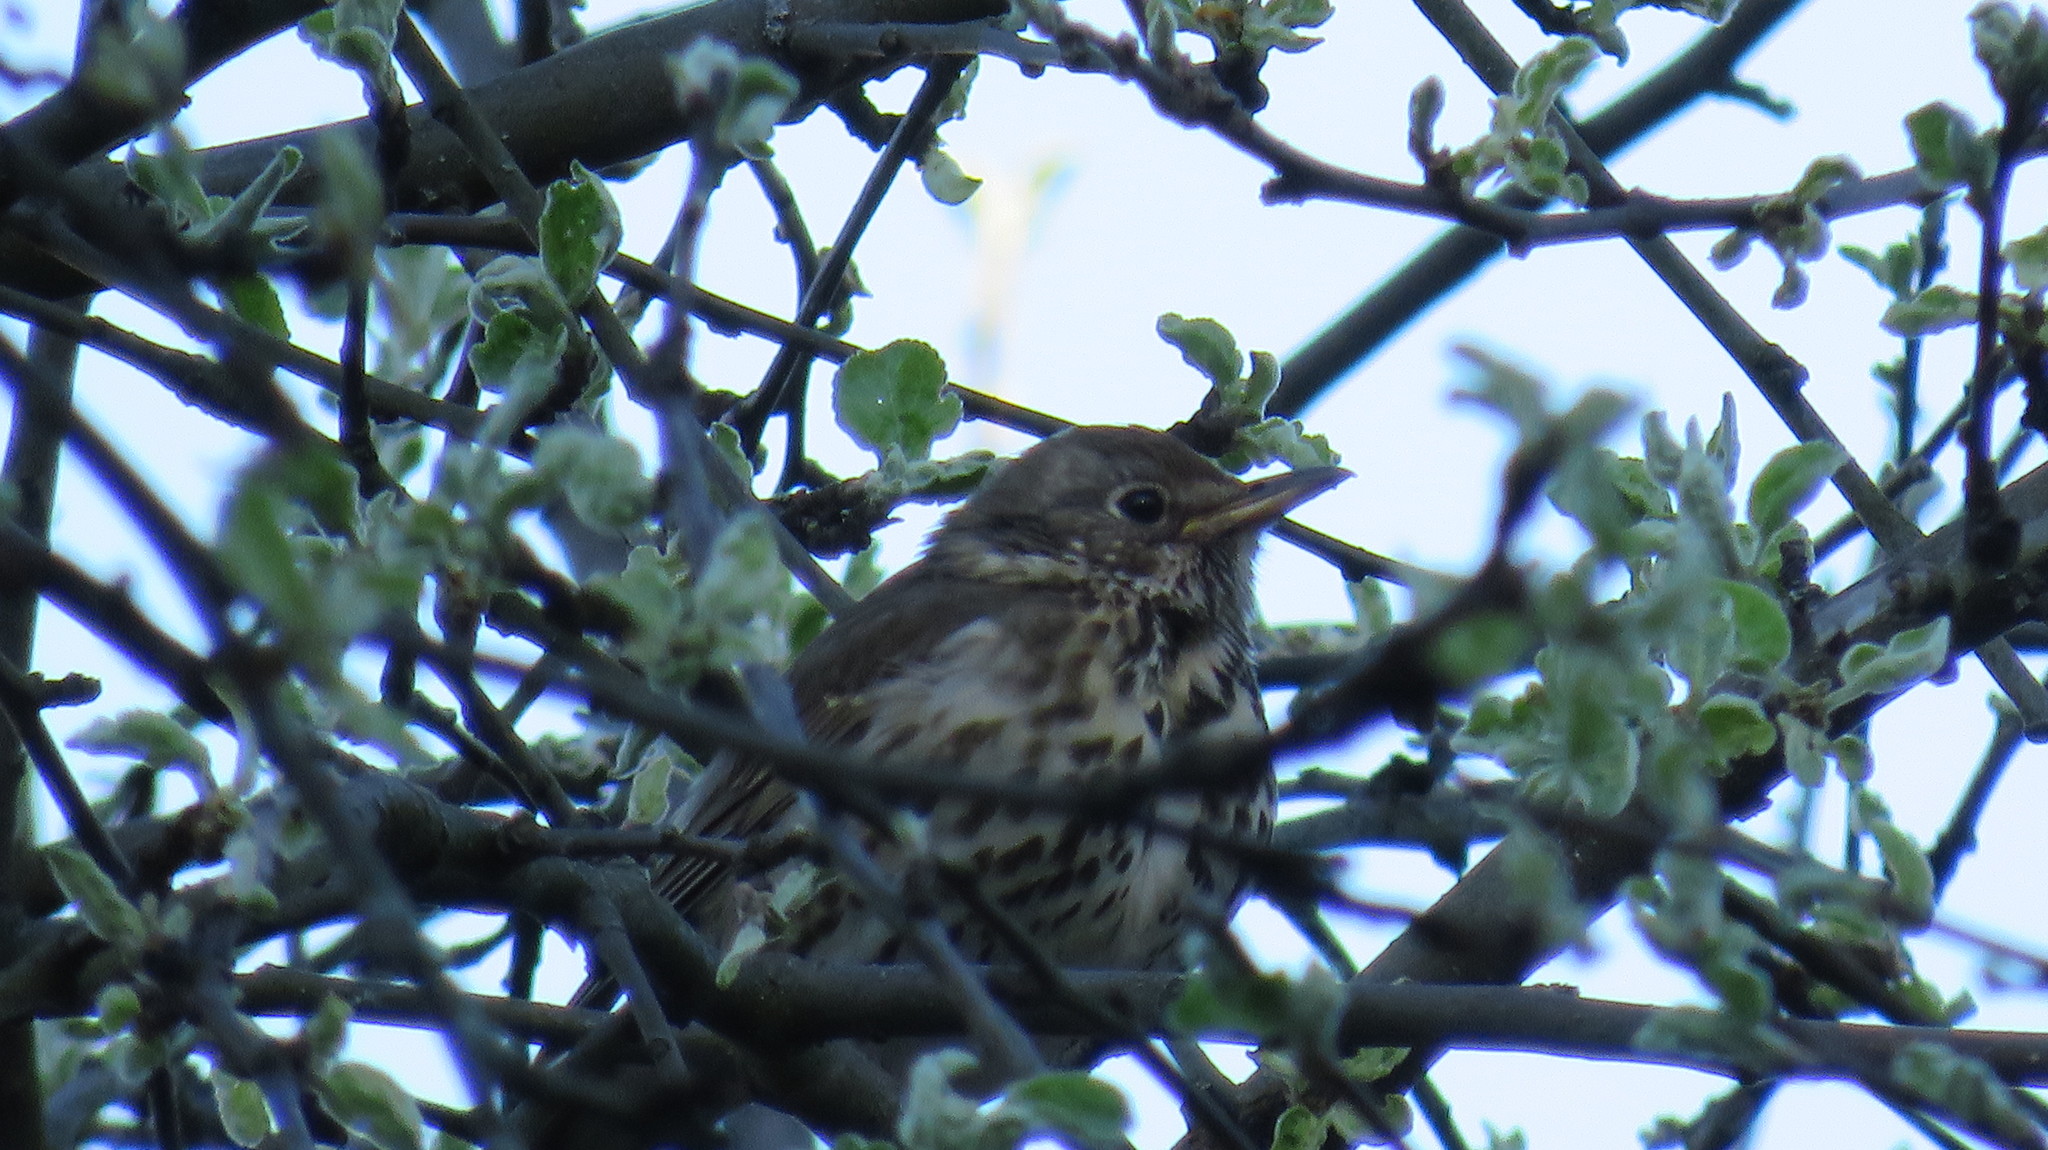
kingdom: Animalia
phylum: Chordata
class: Aves
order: Passeriformes
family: Turdidae
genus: Turdus
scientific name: Turdus philomelos
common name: Song thrush
